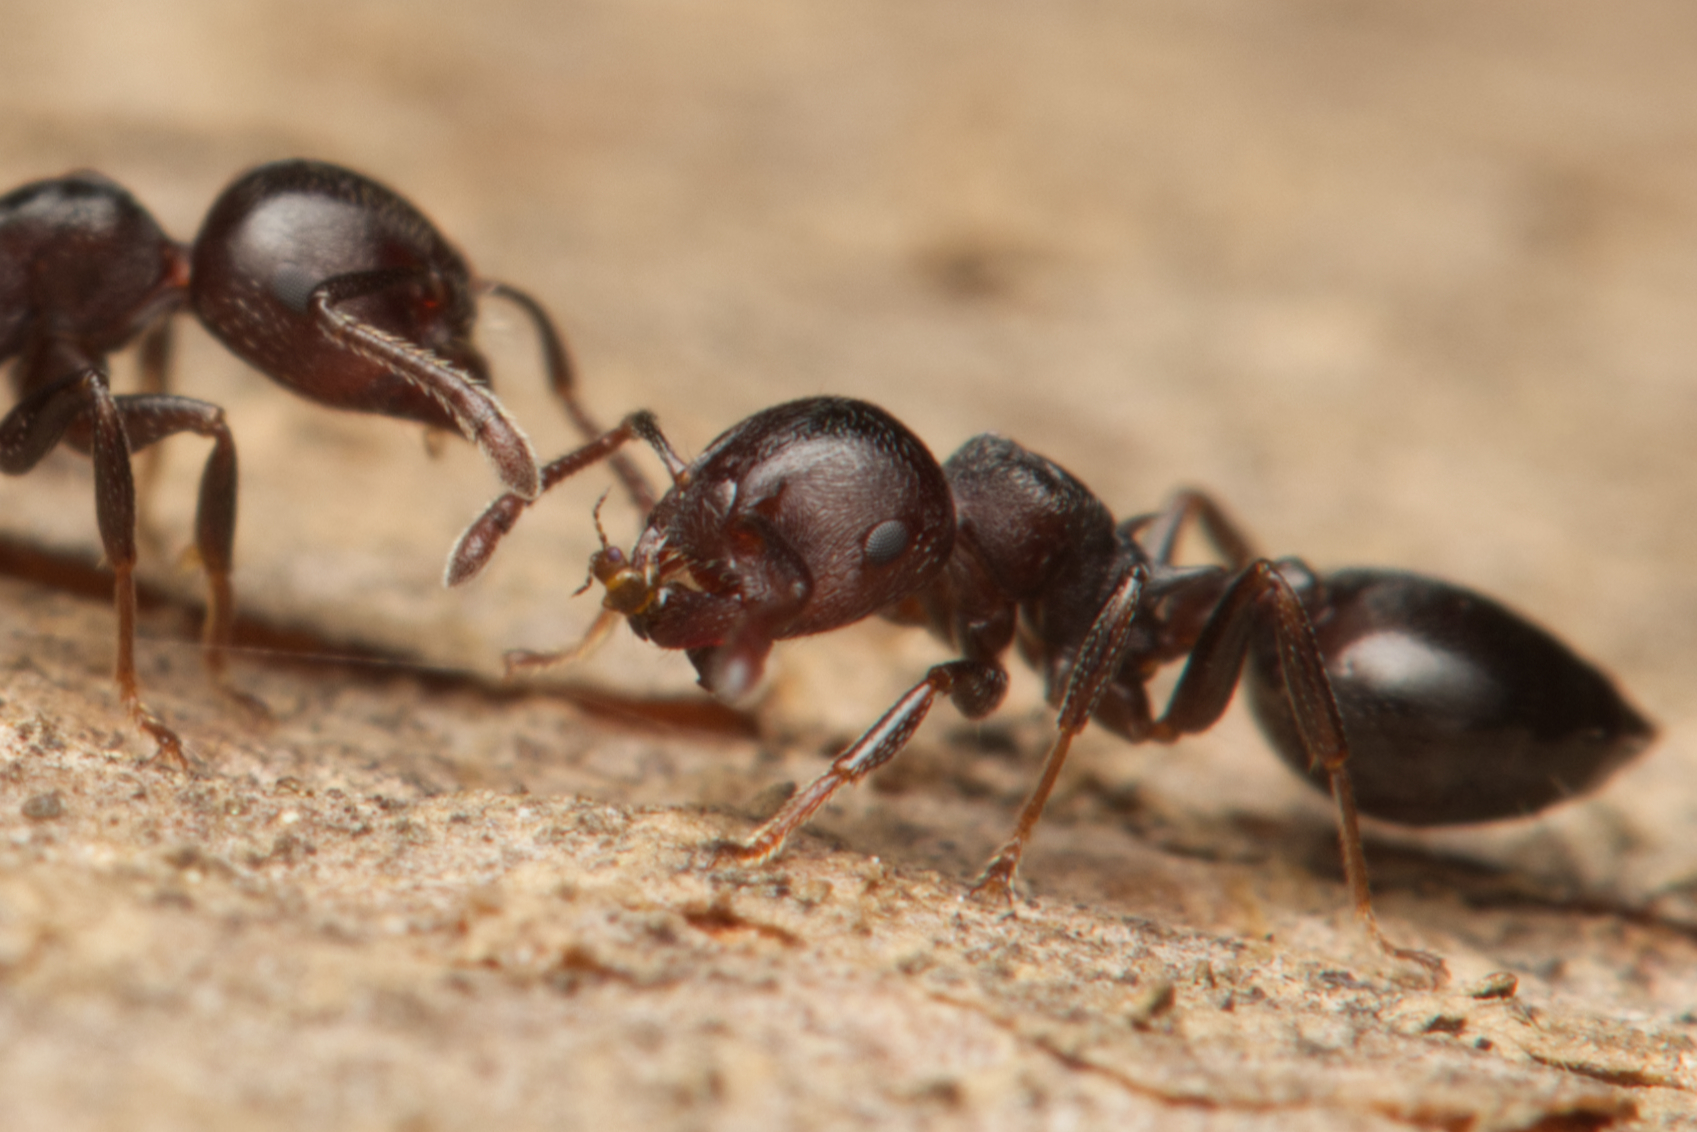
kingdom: Animalia
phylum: Arthropoda
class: Insecta
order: Hymenoptera
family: Formicidae
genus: Crematogaster
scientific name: Crematogaster cornigera
